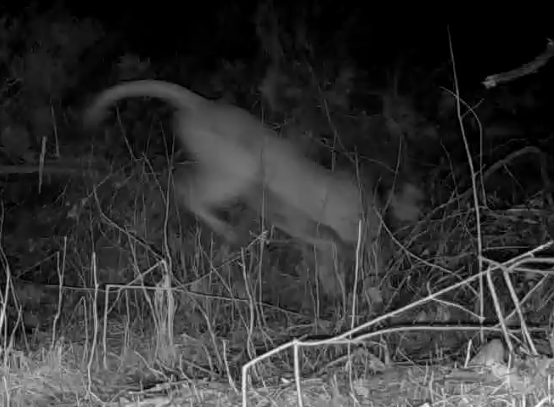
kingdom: Animalia
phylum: Chordata
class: Mammalia
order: Carnivora
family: Felidae
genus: Puma
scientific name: Puma concolor
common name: Puma
